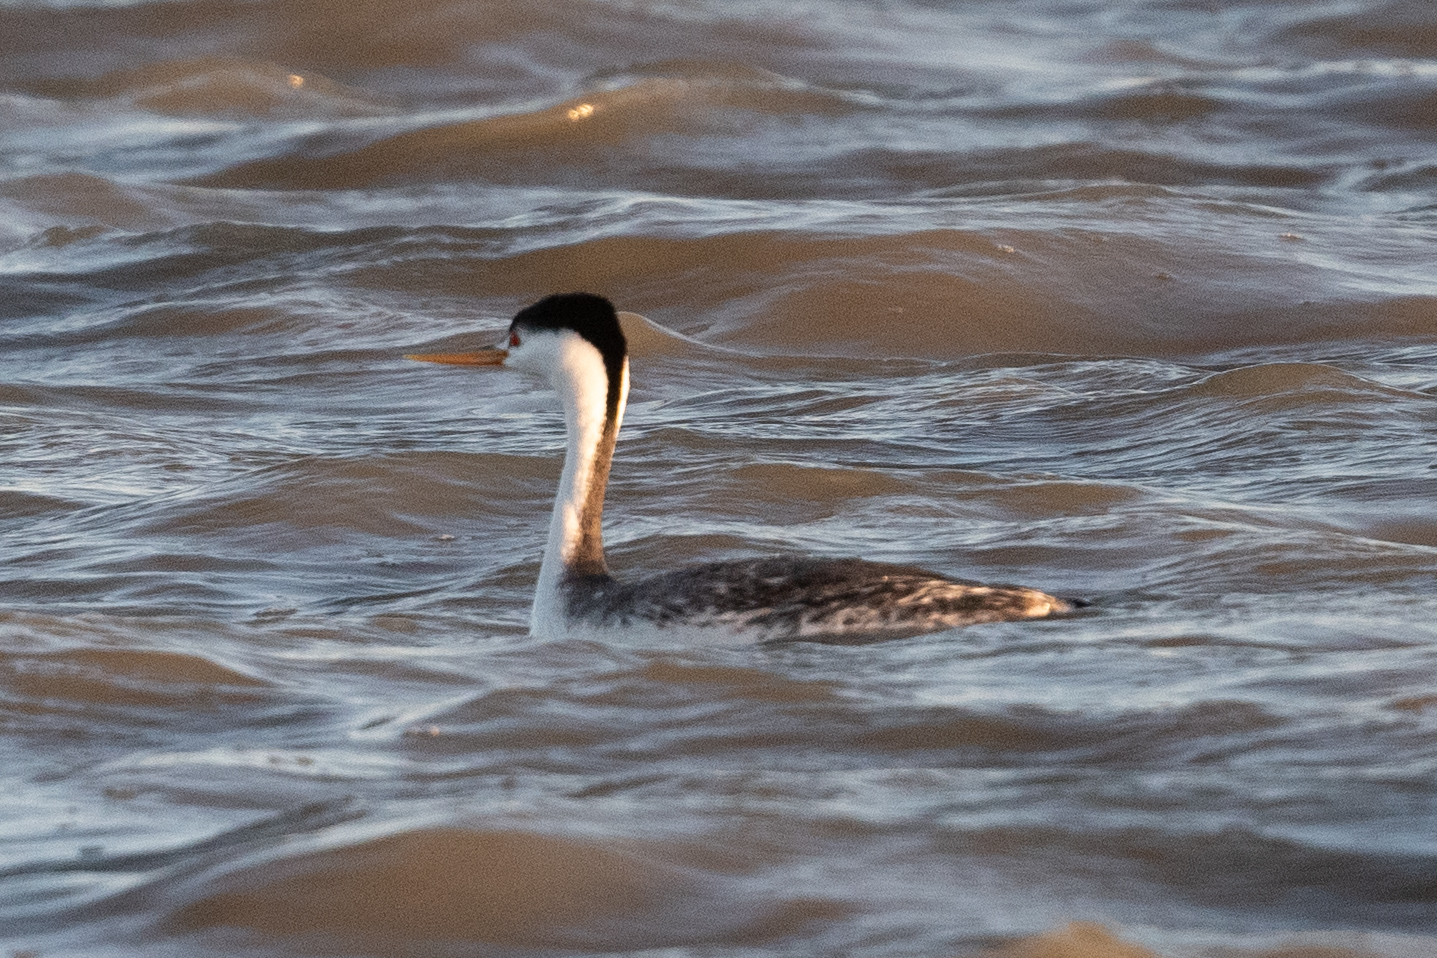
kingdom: Animalia
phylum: Chordata
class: Aves
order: Podicipediformes
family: Podicipedidae
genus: Aechmophorus
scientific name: Aechmophorus clarkii
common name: Clark's grebe
